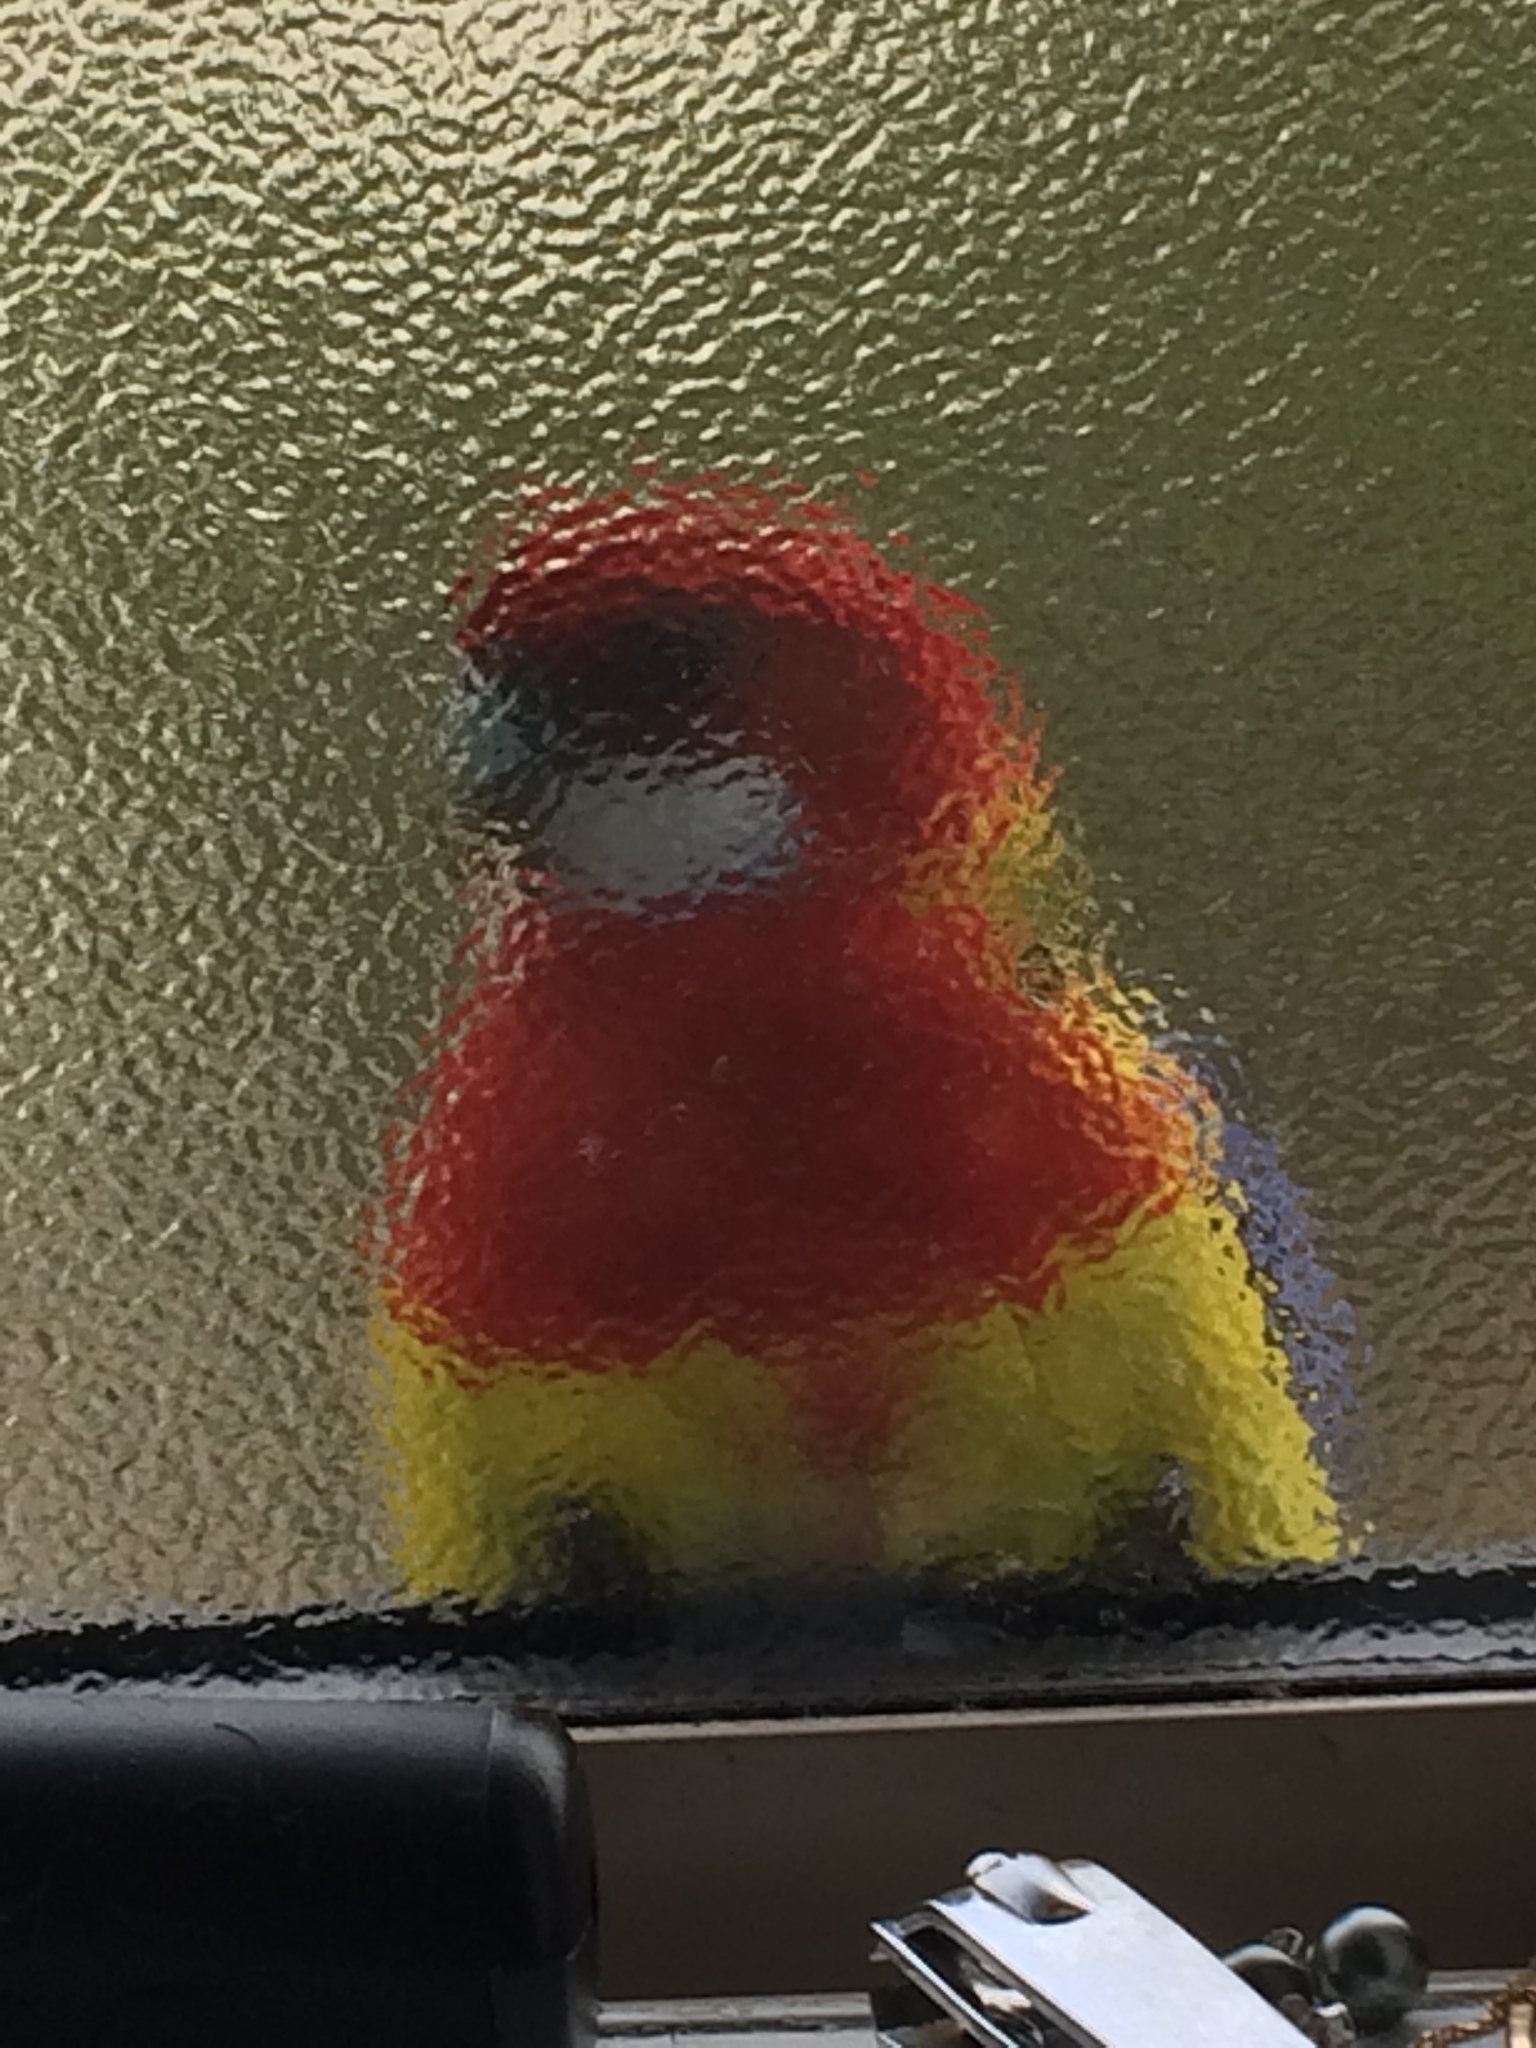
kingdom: Animalia
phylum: Chordata
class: Aves
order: Psittaciformes
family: Psittacidae
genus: Platycercus
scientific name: Platycercus eximius
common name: Eastern rosella
